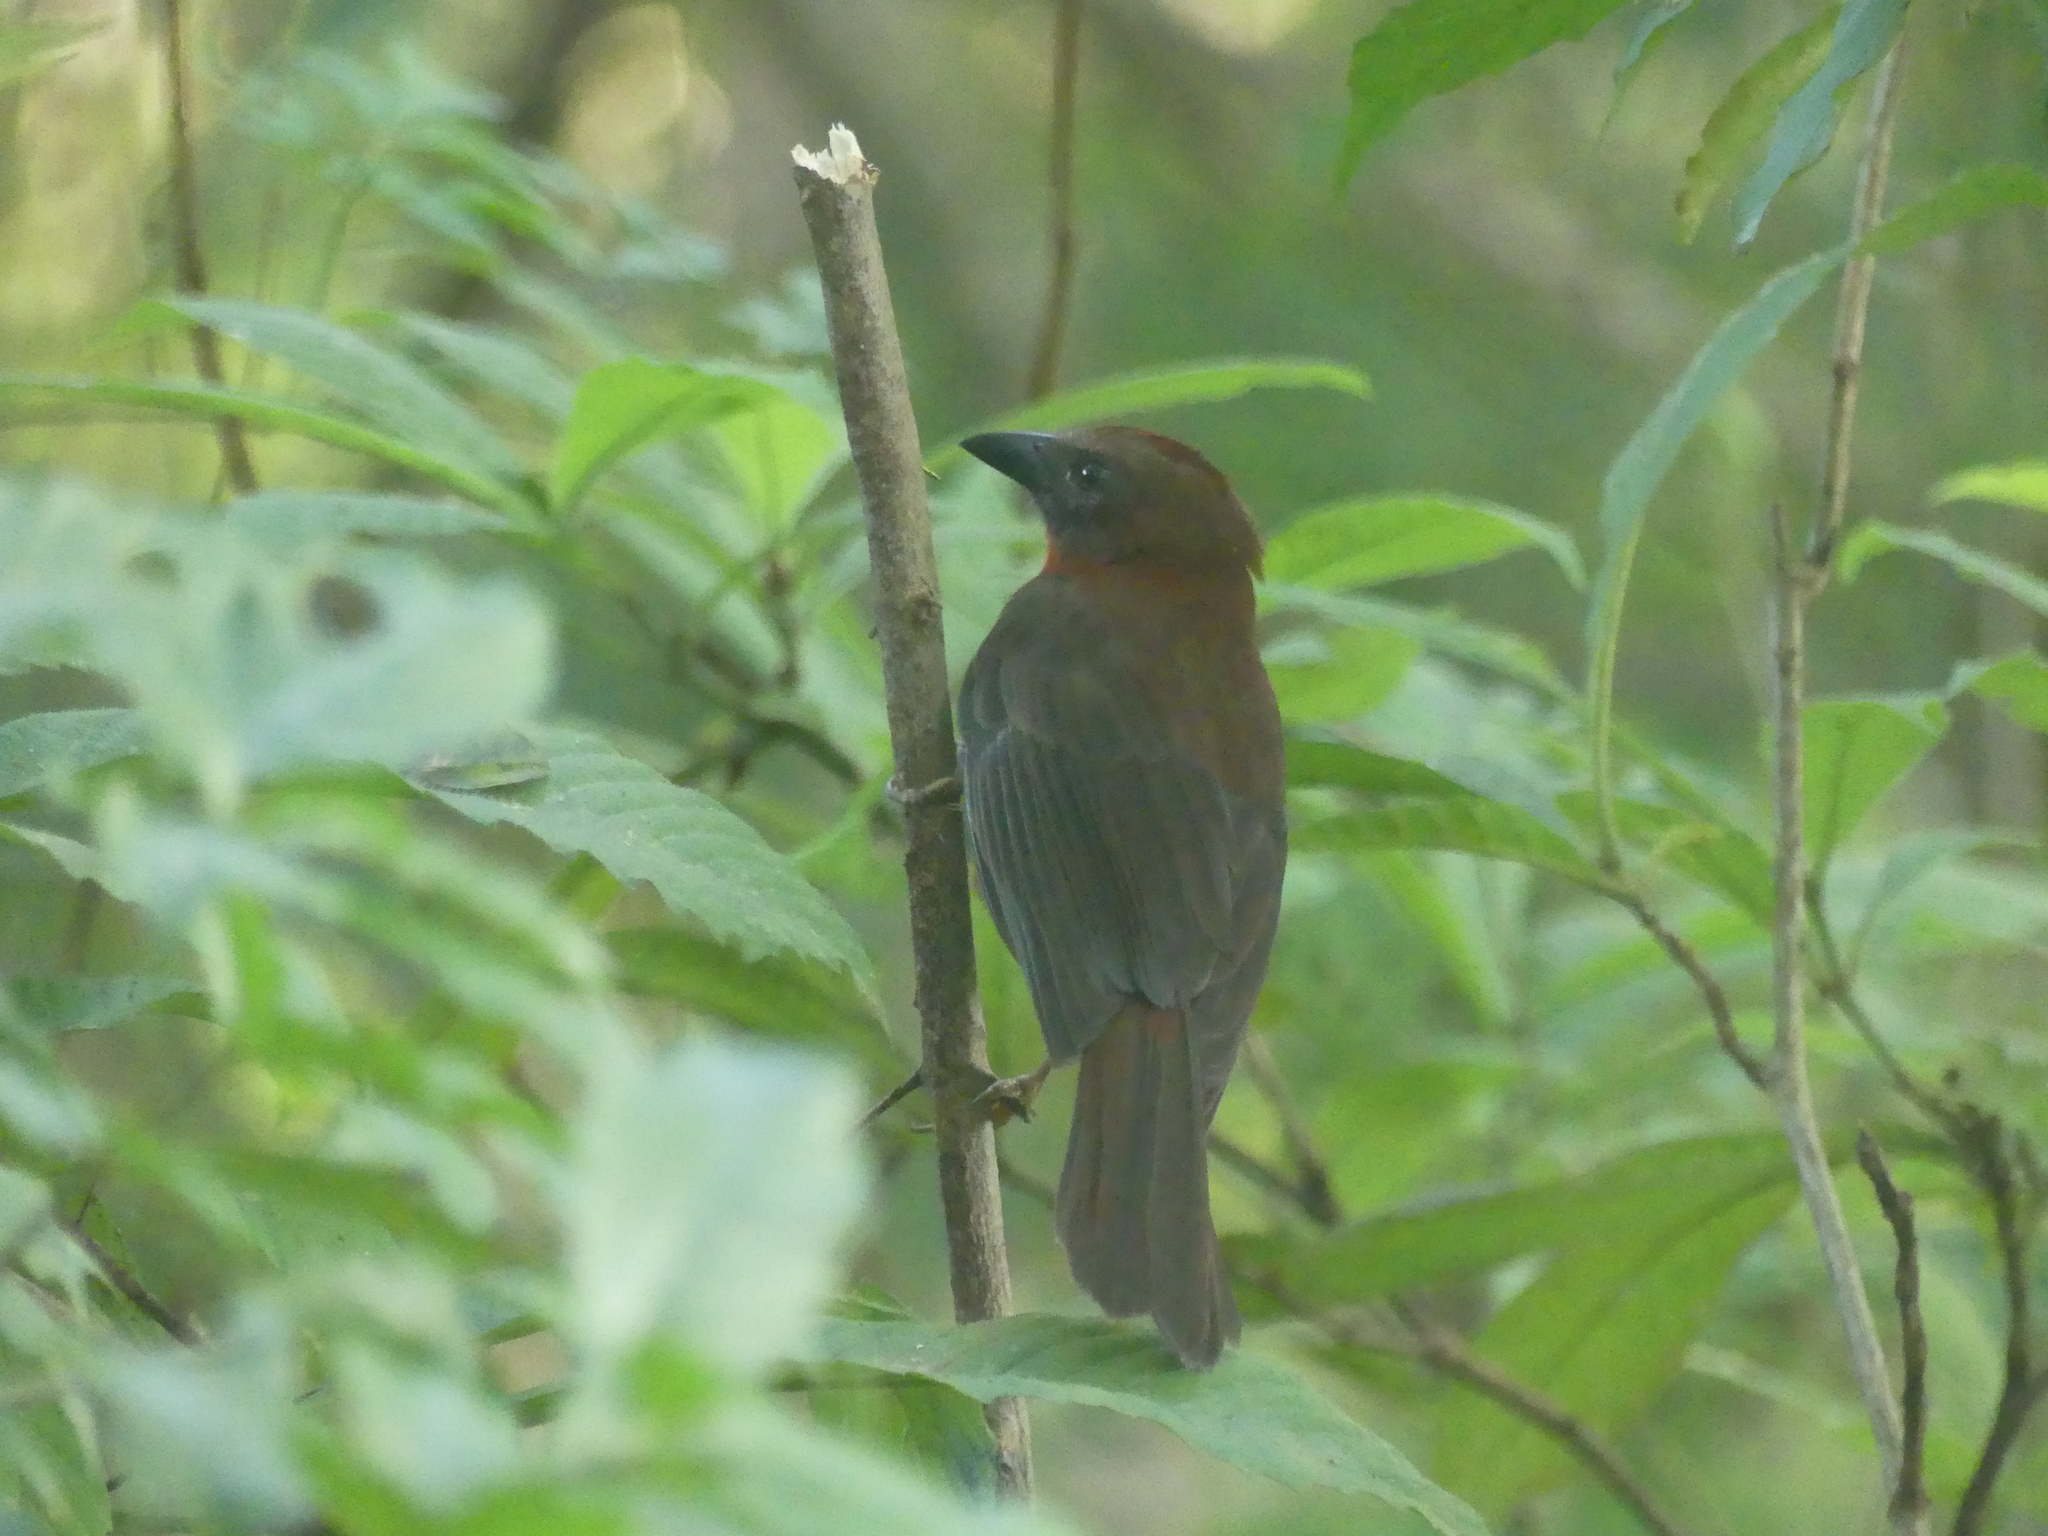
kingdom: Animalia
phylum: Chordata
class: Aves
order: Passeriformes
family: Cardinalidae
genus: Habia
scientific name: Habia fuscicauda
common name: Red-throated ant-tanager
